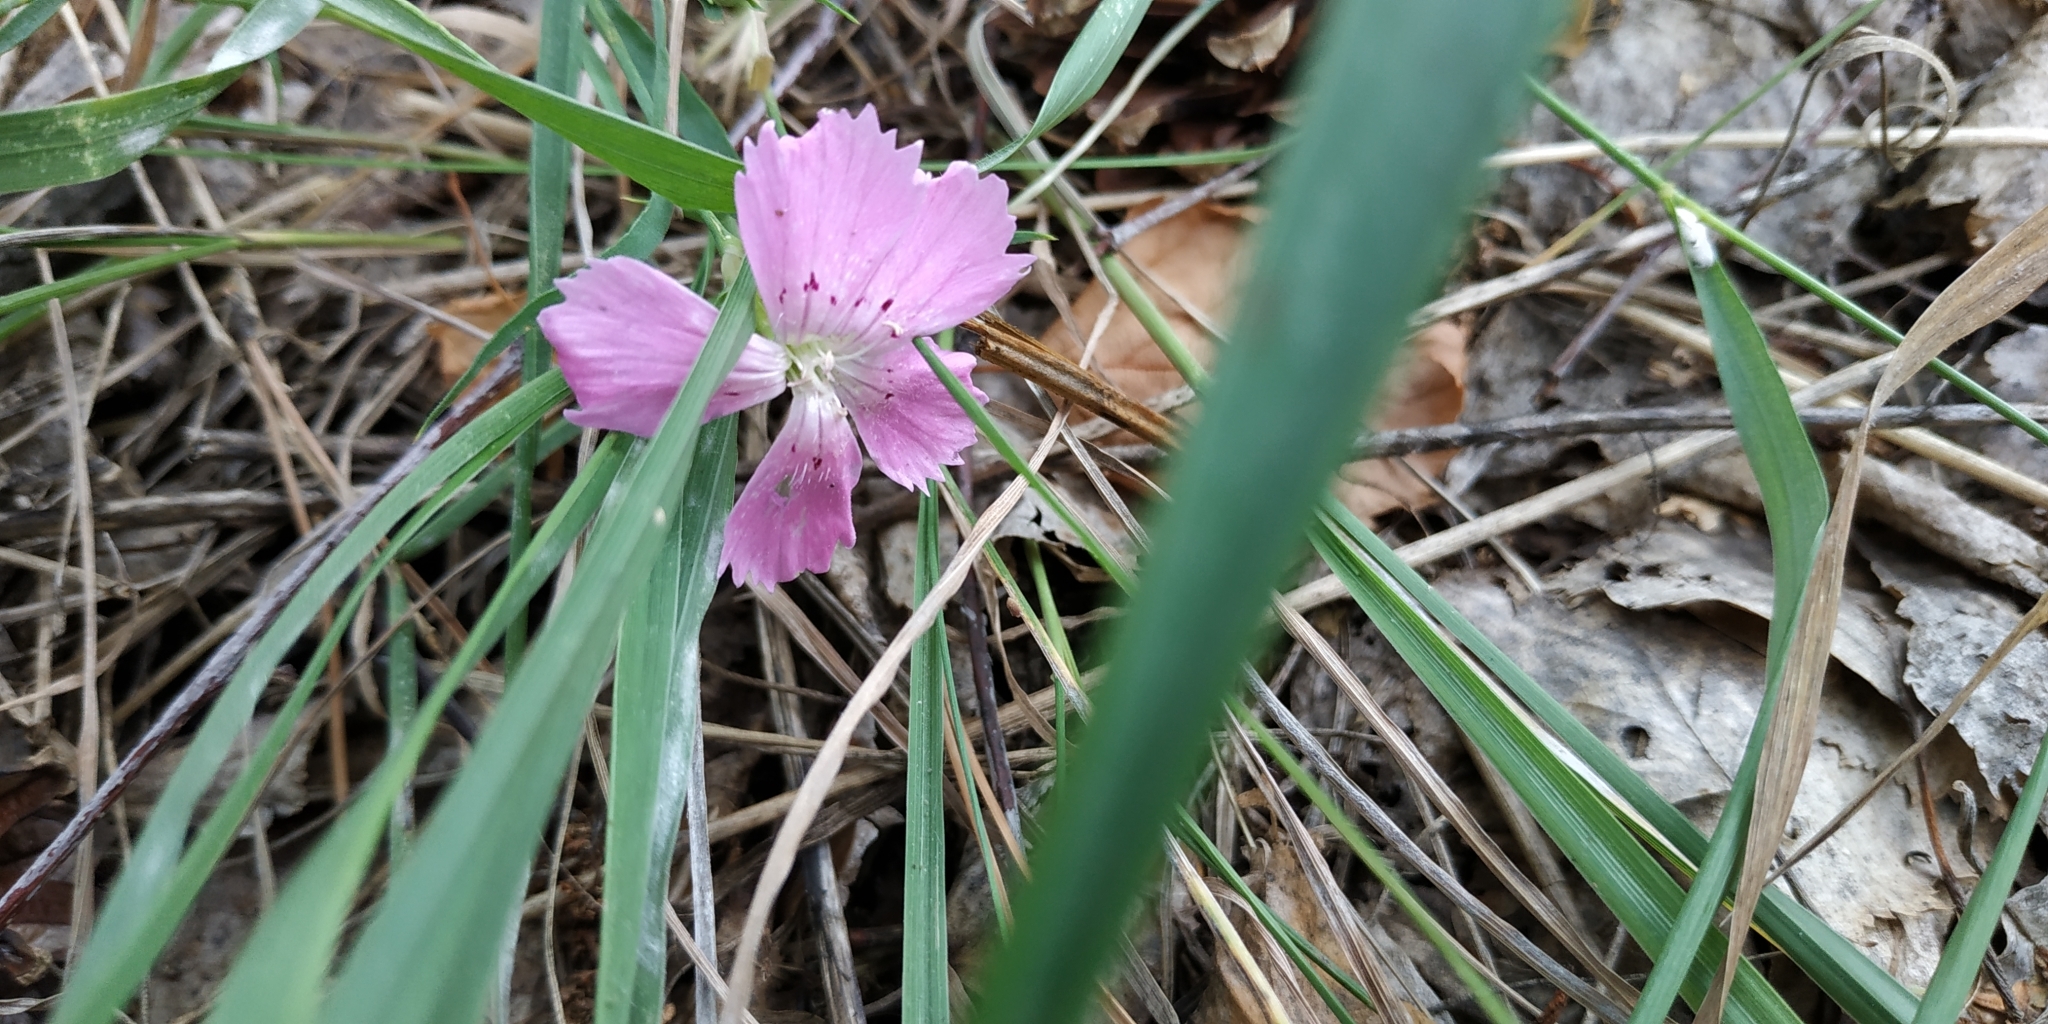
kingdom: Plantae
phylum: Tracheophyta
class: Magnoliopsida
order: Caryophyllales
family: Caryophyllaceae
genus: Dianthus
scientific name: Dianthus chinensis
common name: Rainbow pink
